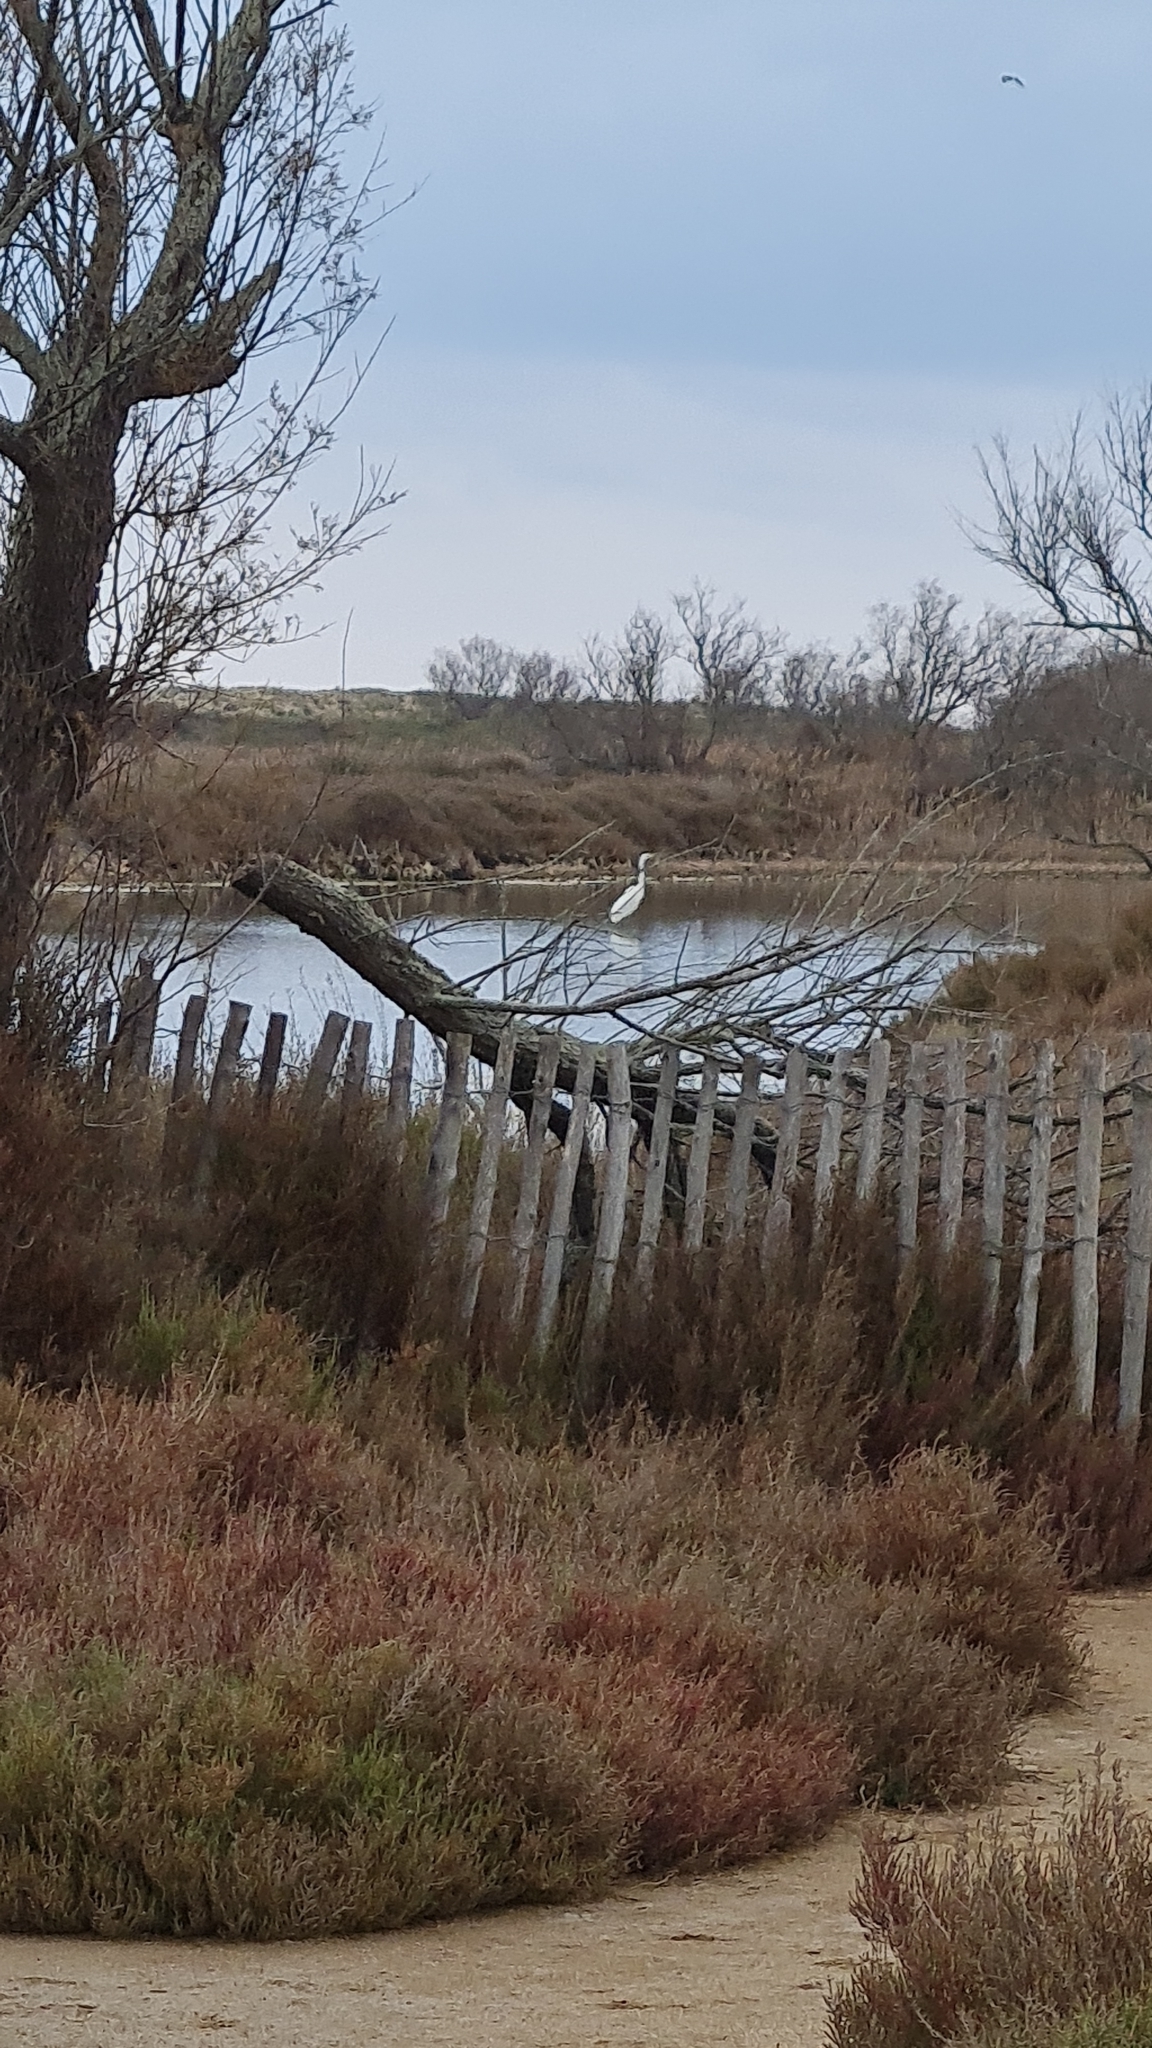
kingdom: Animalia
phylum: Chordata
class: Aves
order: Pelecaniformes
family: Ardeidae
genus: Ardea
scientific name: Ardea alba
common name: Great egret
